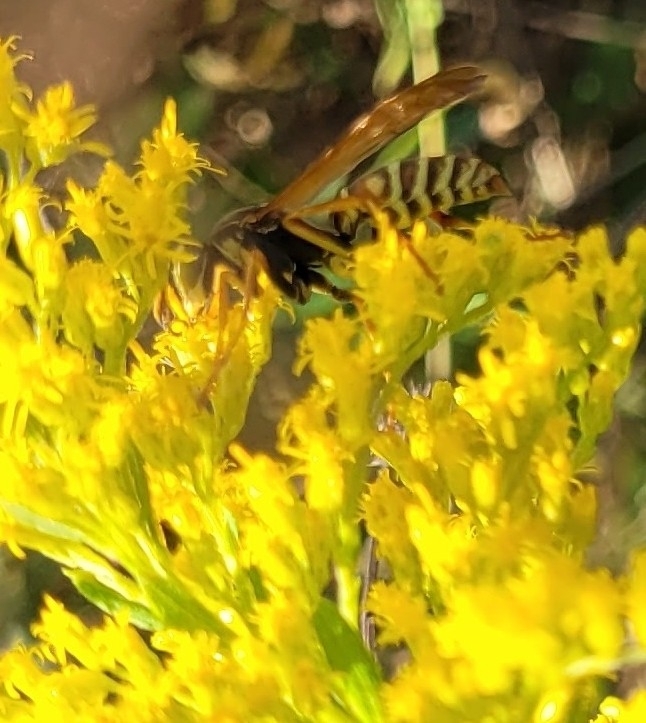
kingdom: Animalia
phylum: Arthropoda
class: Insecta
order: Hymenoptera
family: Eumenidae
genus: Polistes
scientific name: Polistes fuscatus
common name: Dark paper wasp
